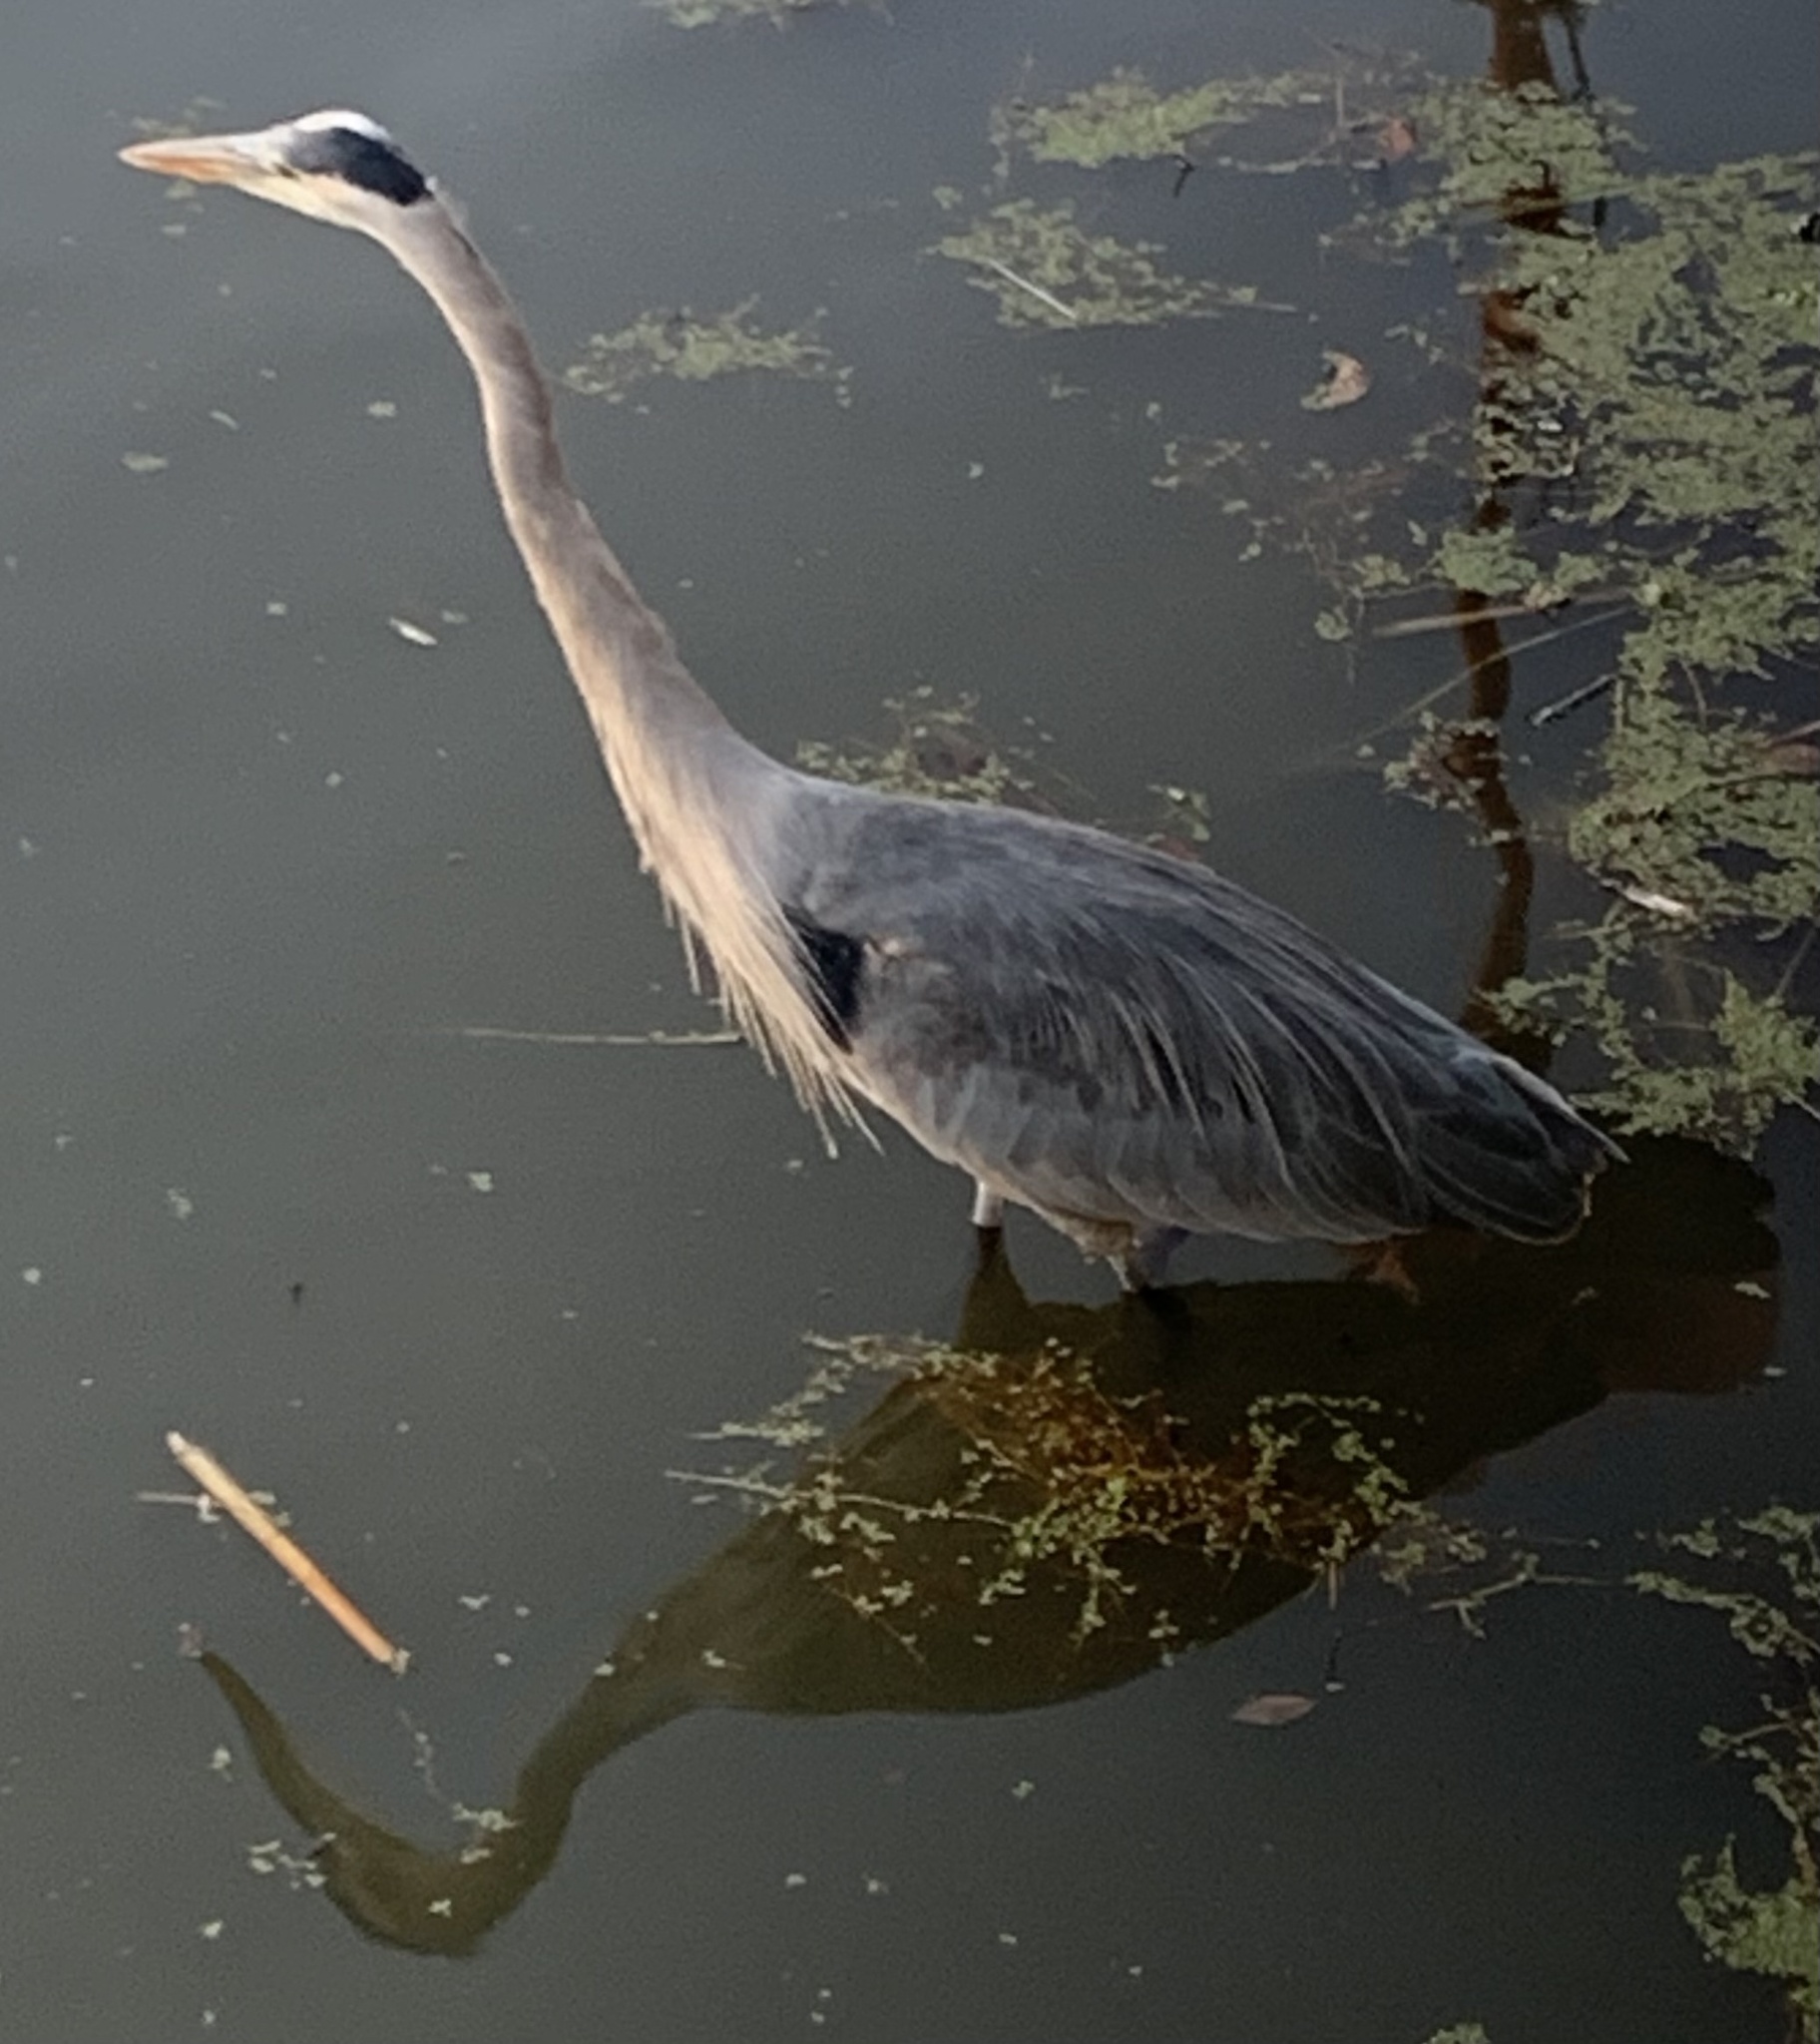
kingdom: Animalia
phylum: Chordata
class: Aves
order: Pelecaniformes
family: Ardeidae
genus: Ardea
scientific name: Ardea herodias
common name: Great blue heron
